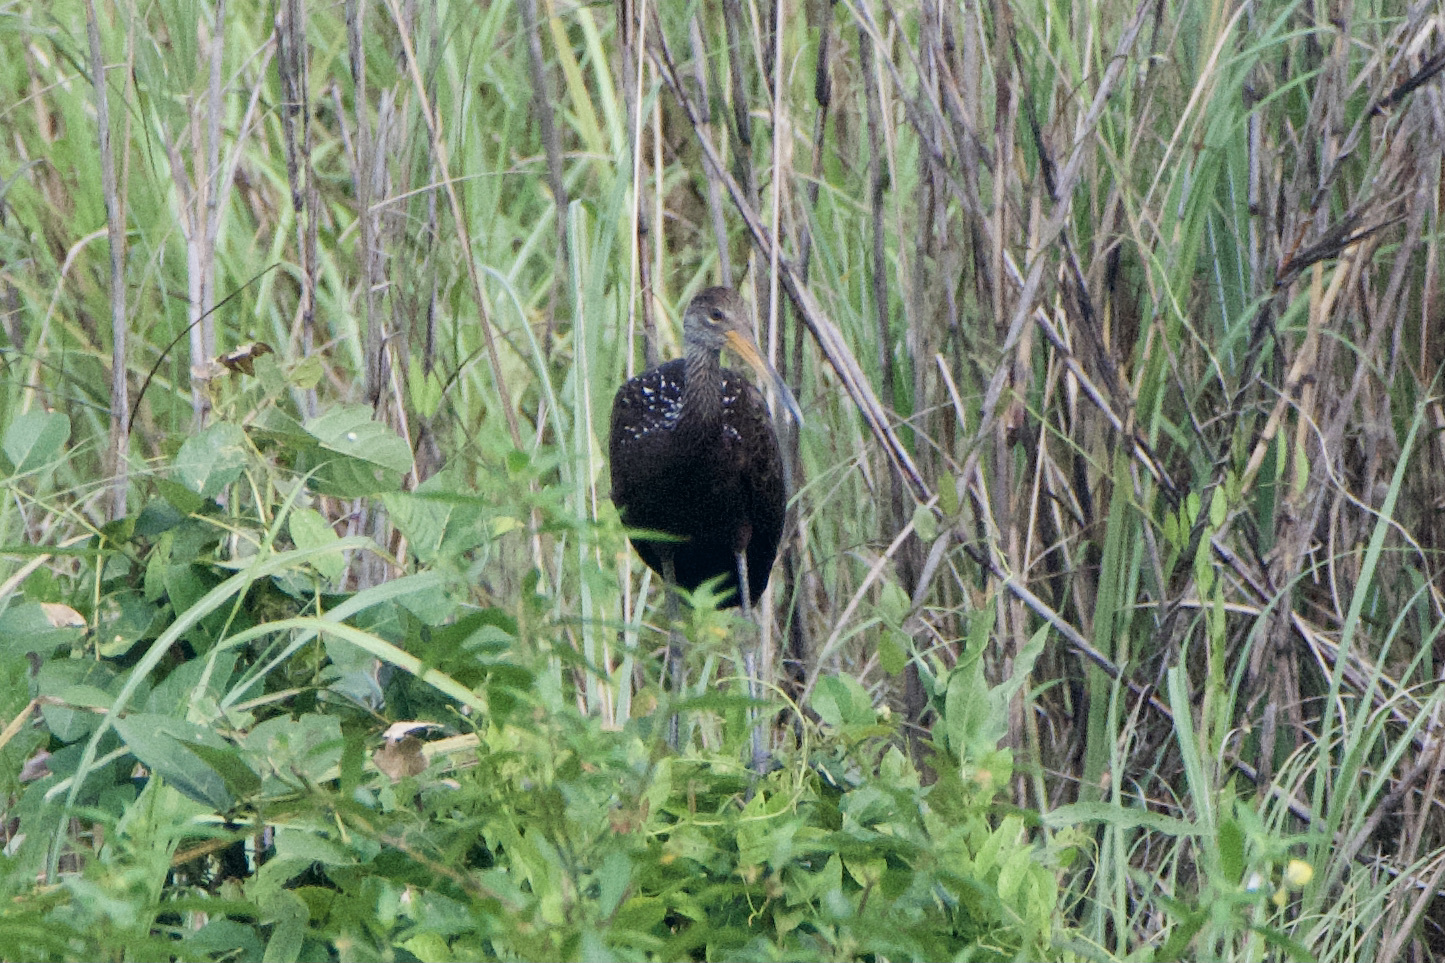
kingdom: Animalia
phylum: Chordata
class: Aves
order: Gruiformes
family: Aramidae
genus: Aramus
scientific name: Aramus guarauna
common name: Limpkin
